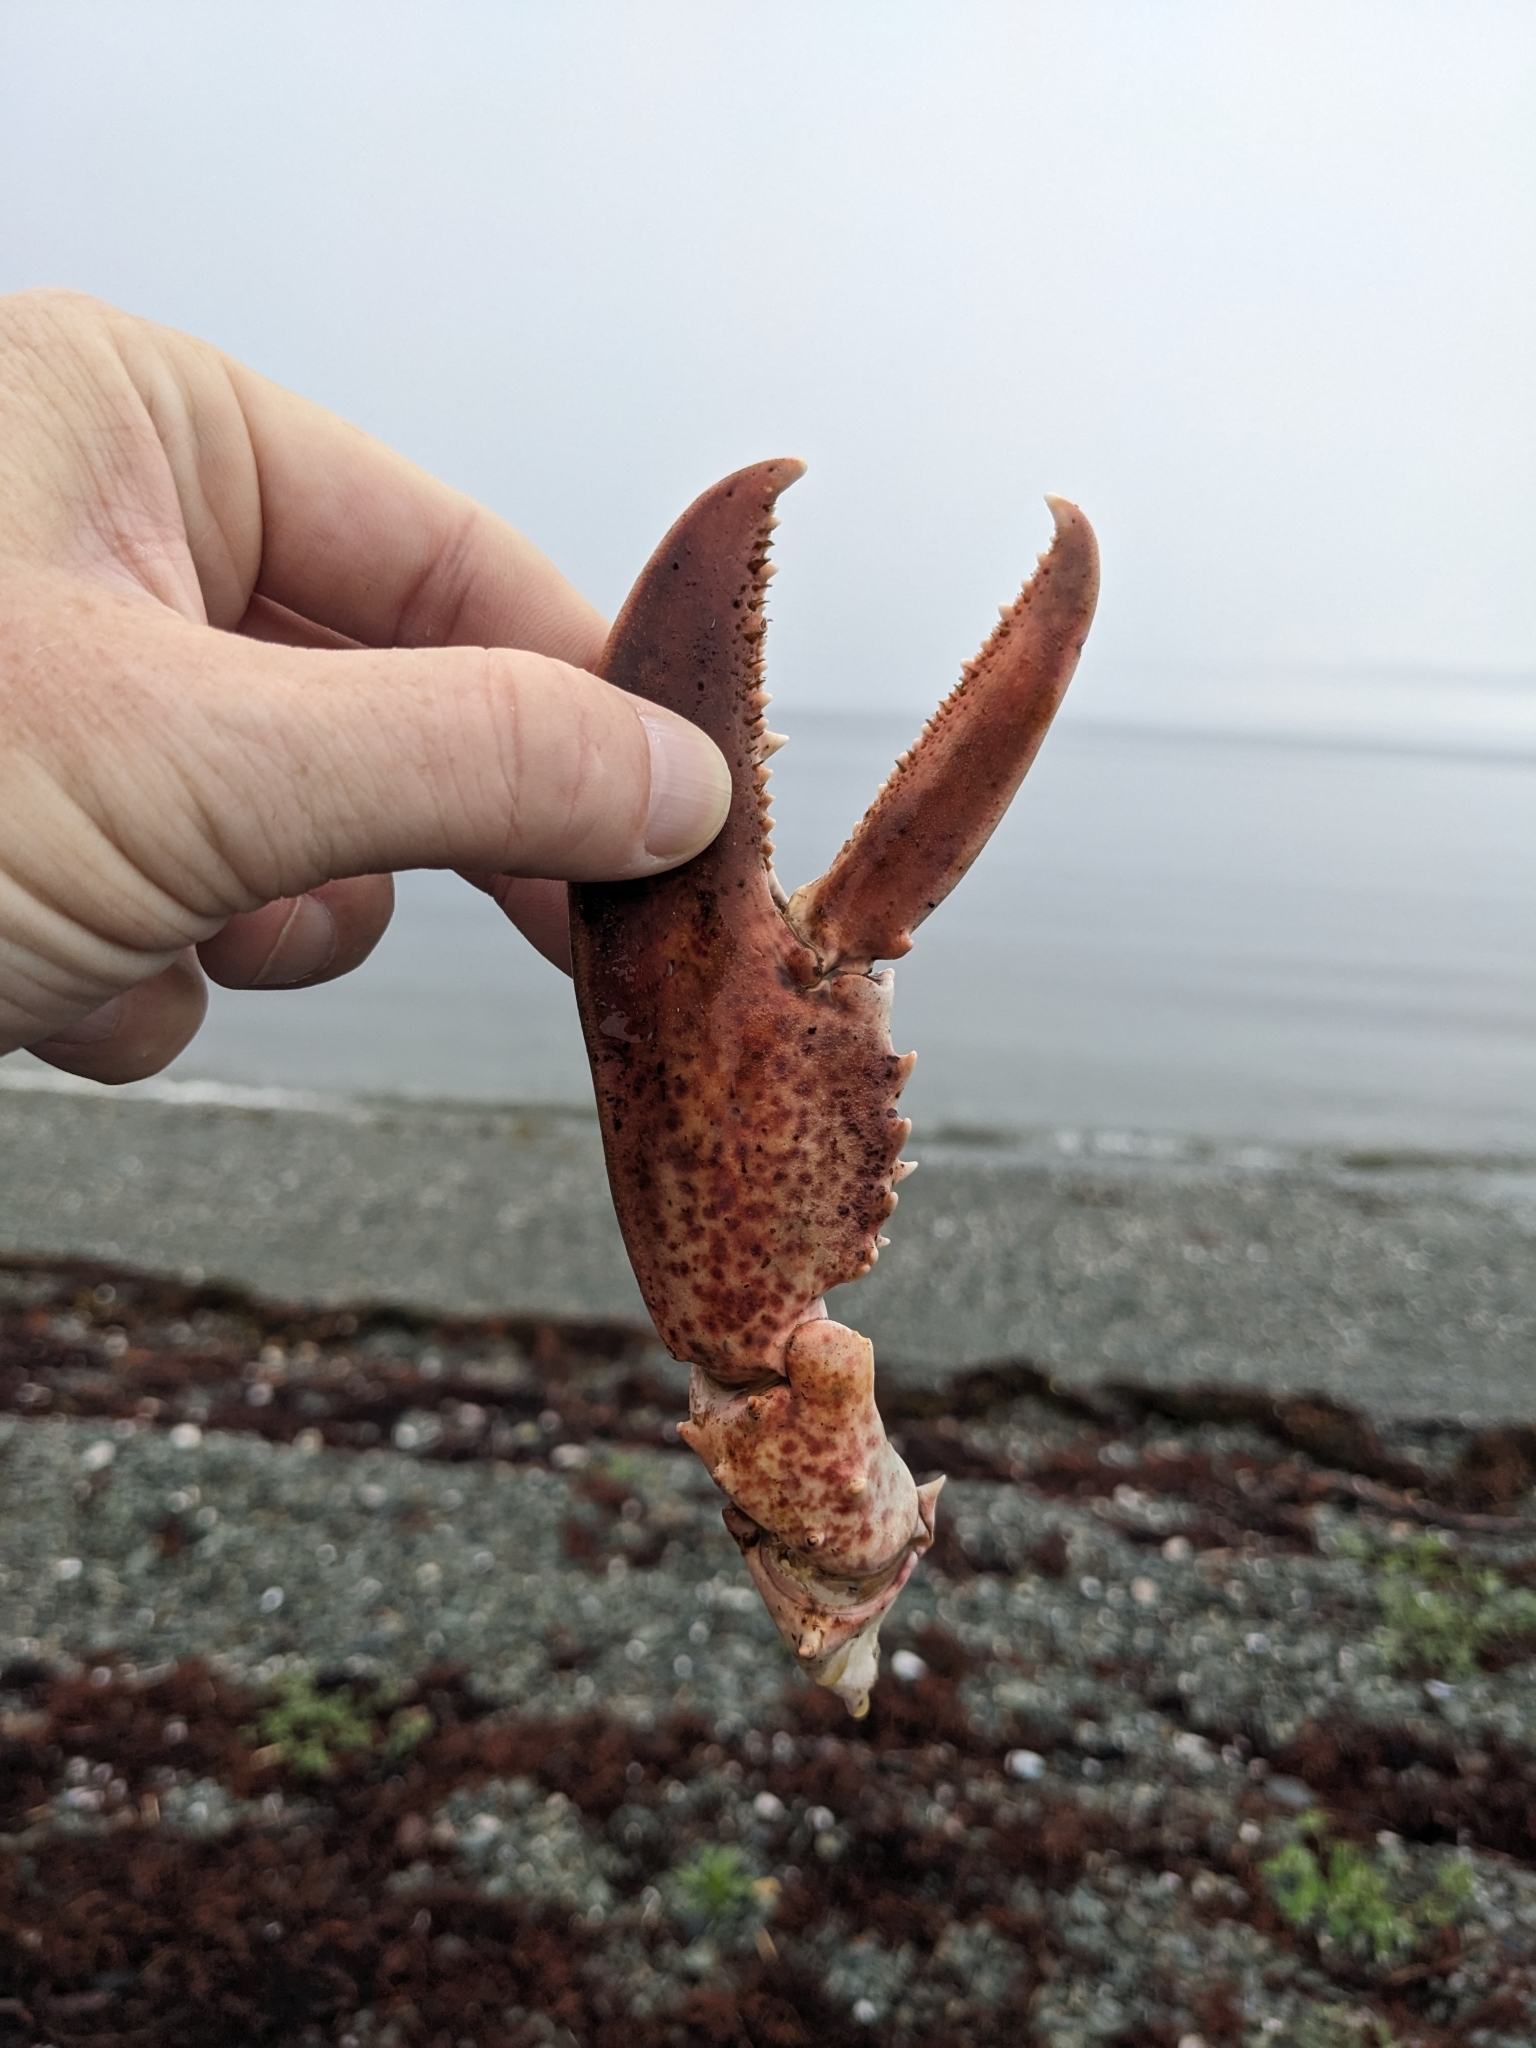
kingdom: Animalia
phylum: Arthropoda
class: Malacostraca
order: Decapoda
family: Nephropidae
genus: Homarus
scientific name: Homarus americanus
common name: American lobster
